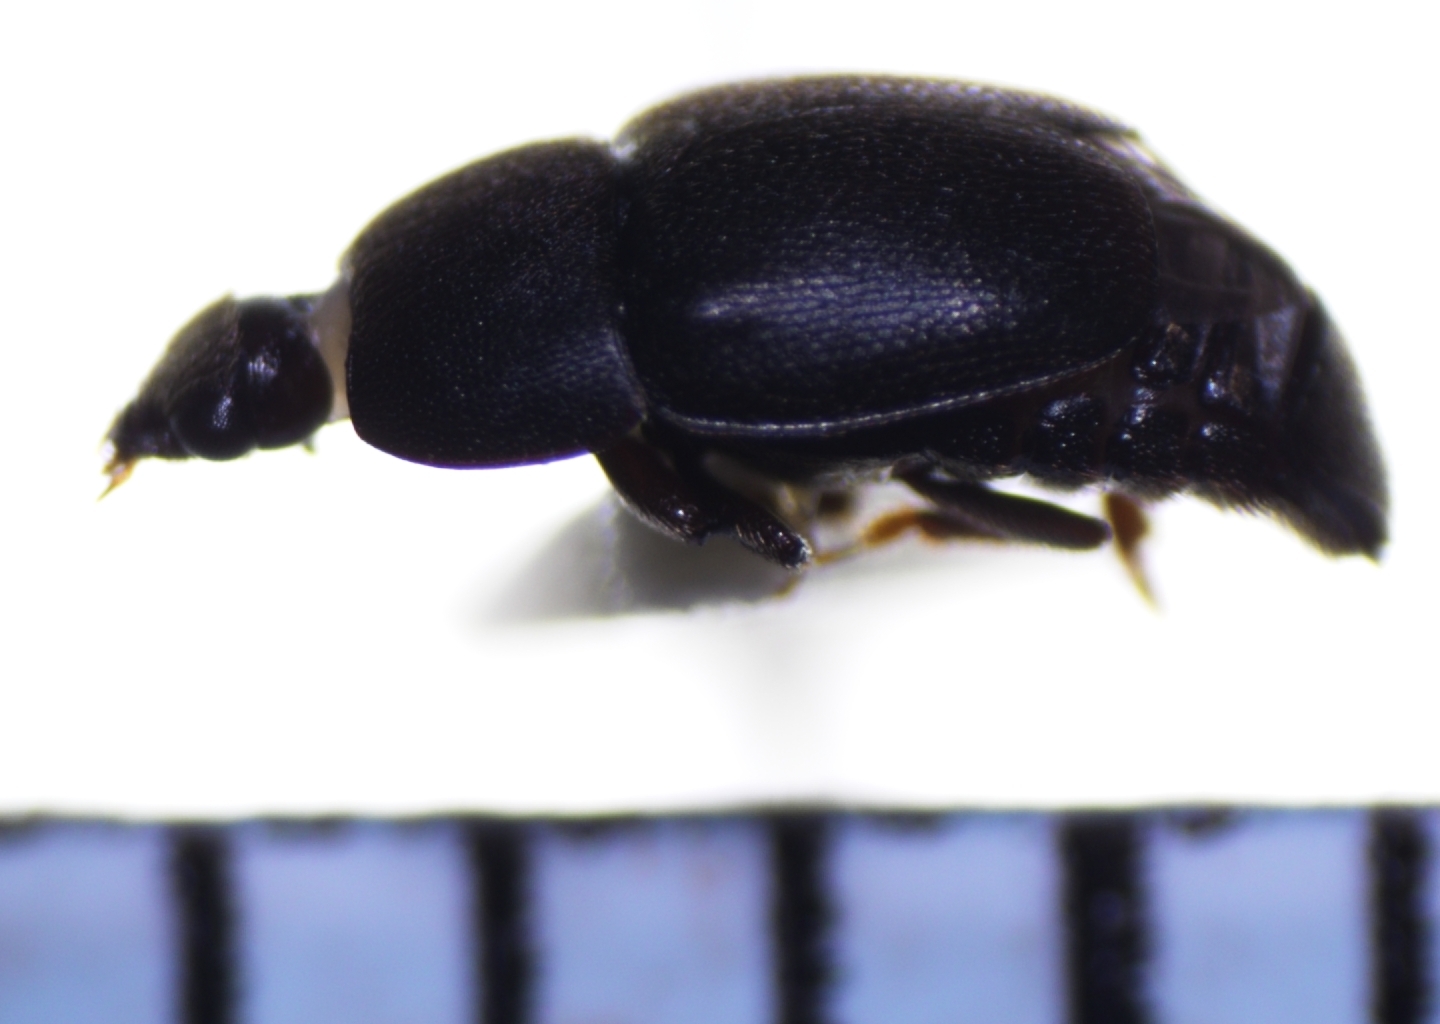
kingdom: Animalia
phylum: Arthropoda
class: Insecta
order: Coleoptera
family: Nitidulidae
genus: Aethina
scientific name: Aethina concolor
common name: Sap beetle
